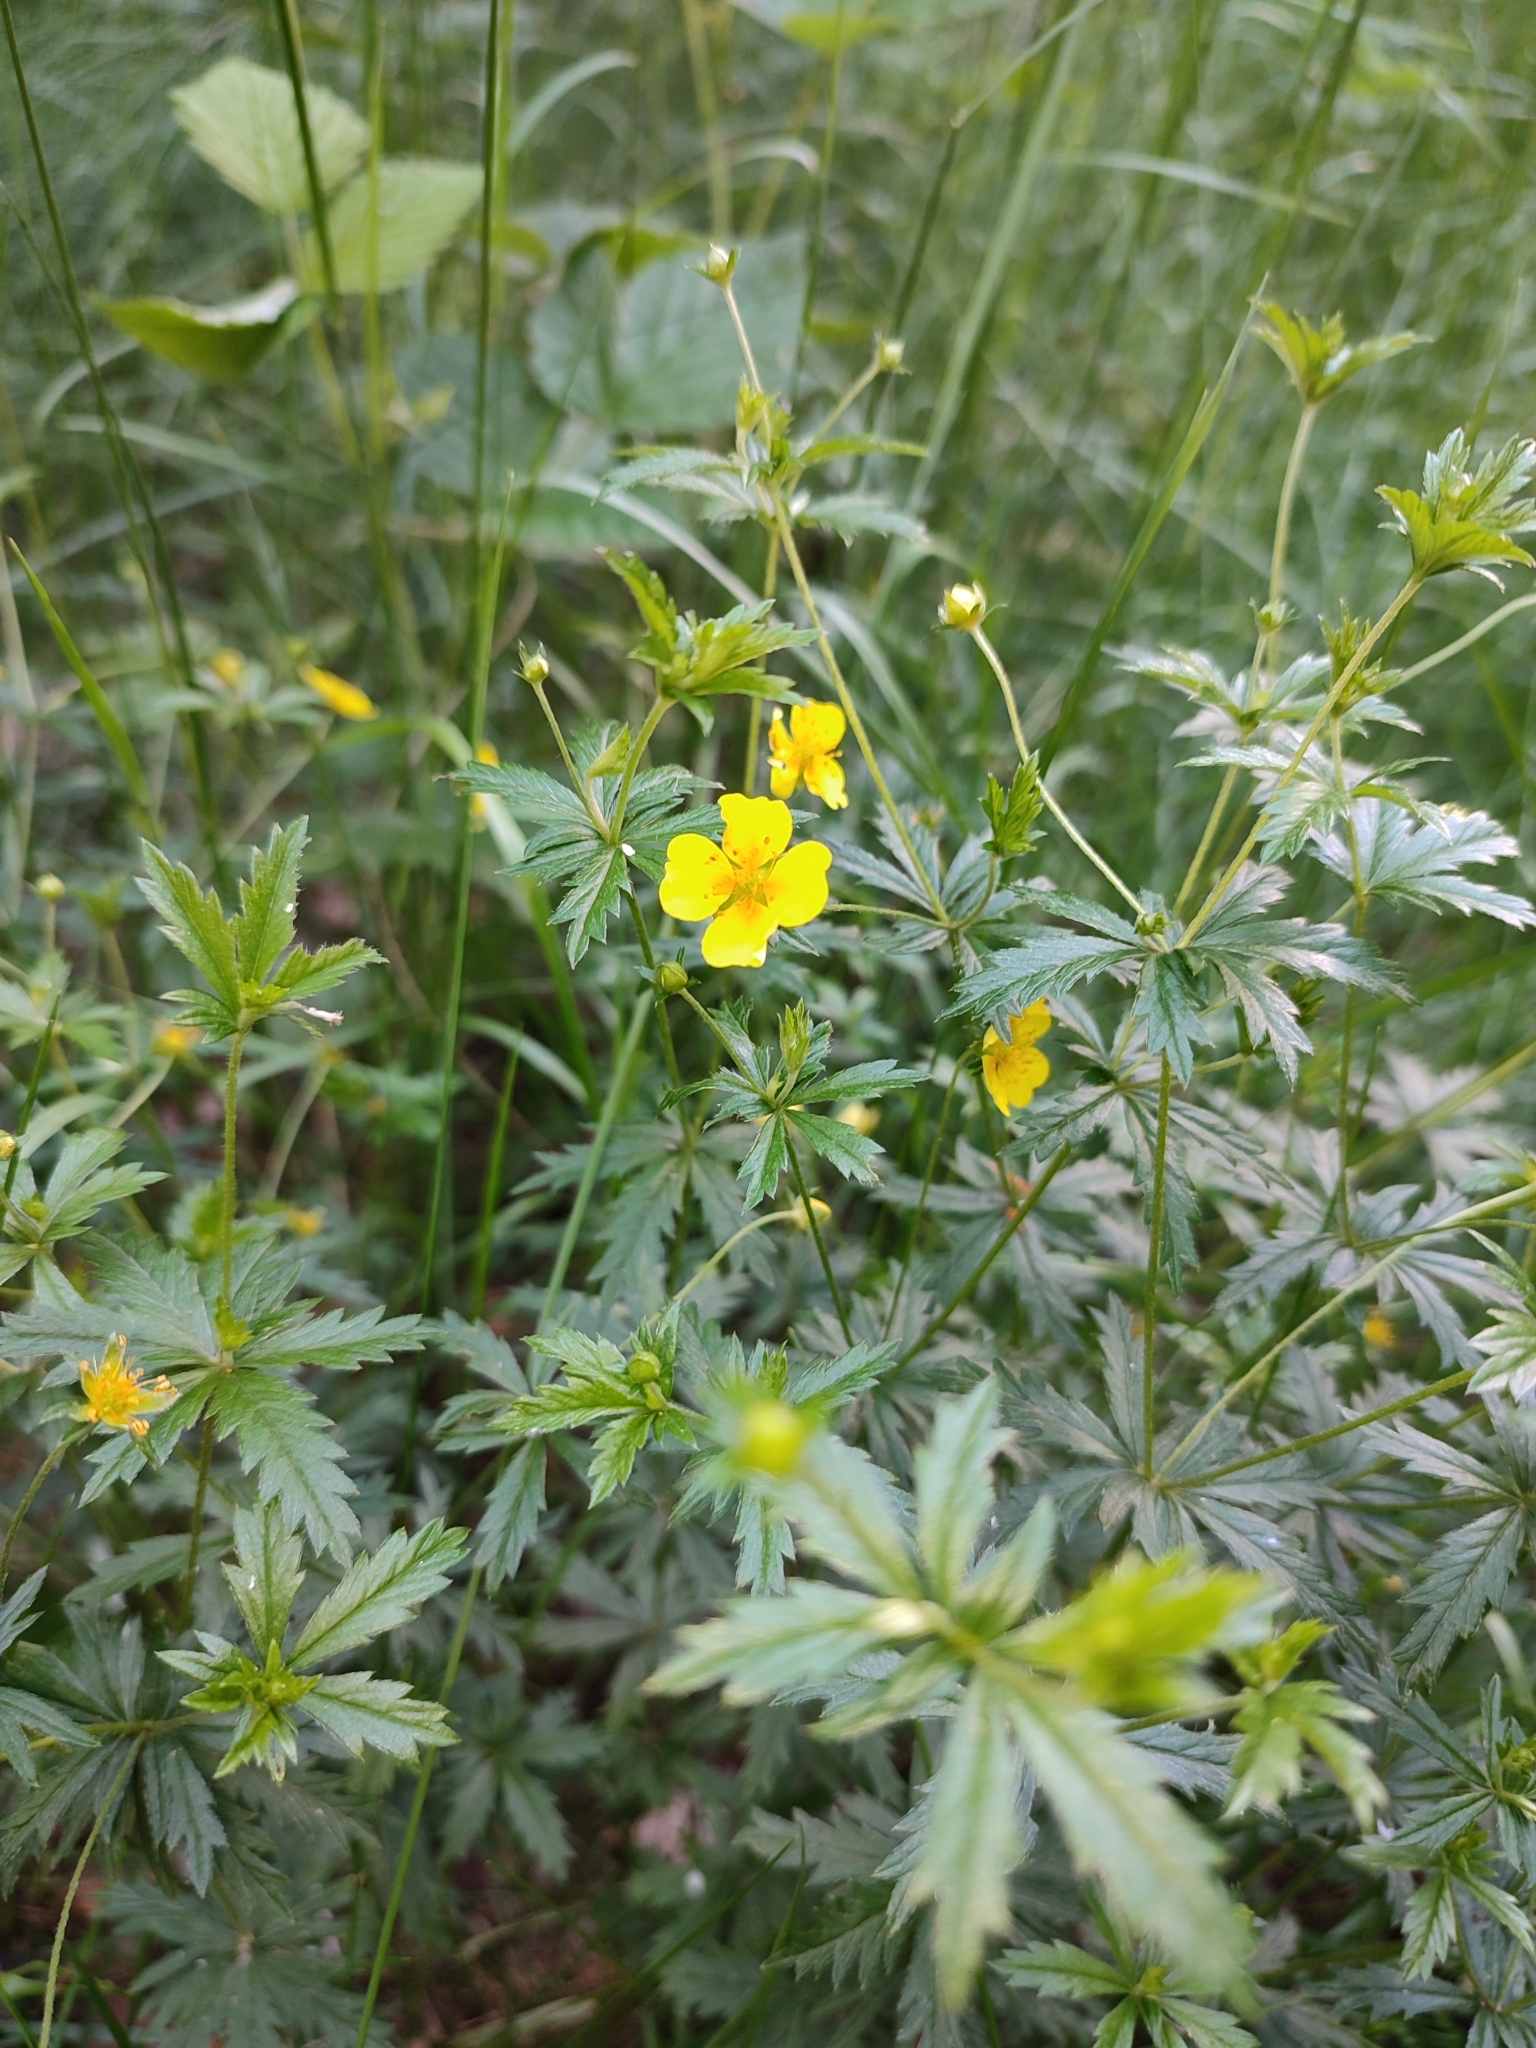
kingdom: Plantae
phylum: Tracheophyta
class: Magnoliopsida
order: Rosales
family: Rosaceae
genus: Potentilla
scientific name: Potentilla erecta
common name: Tormentil
